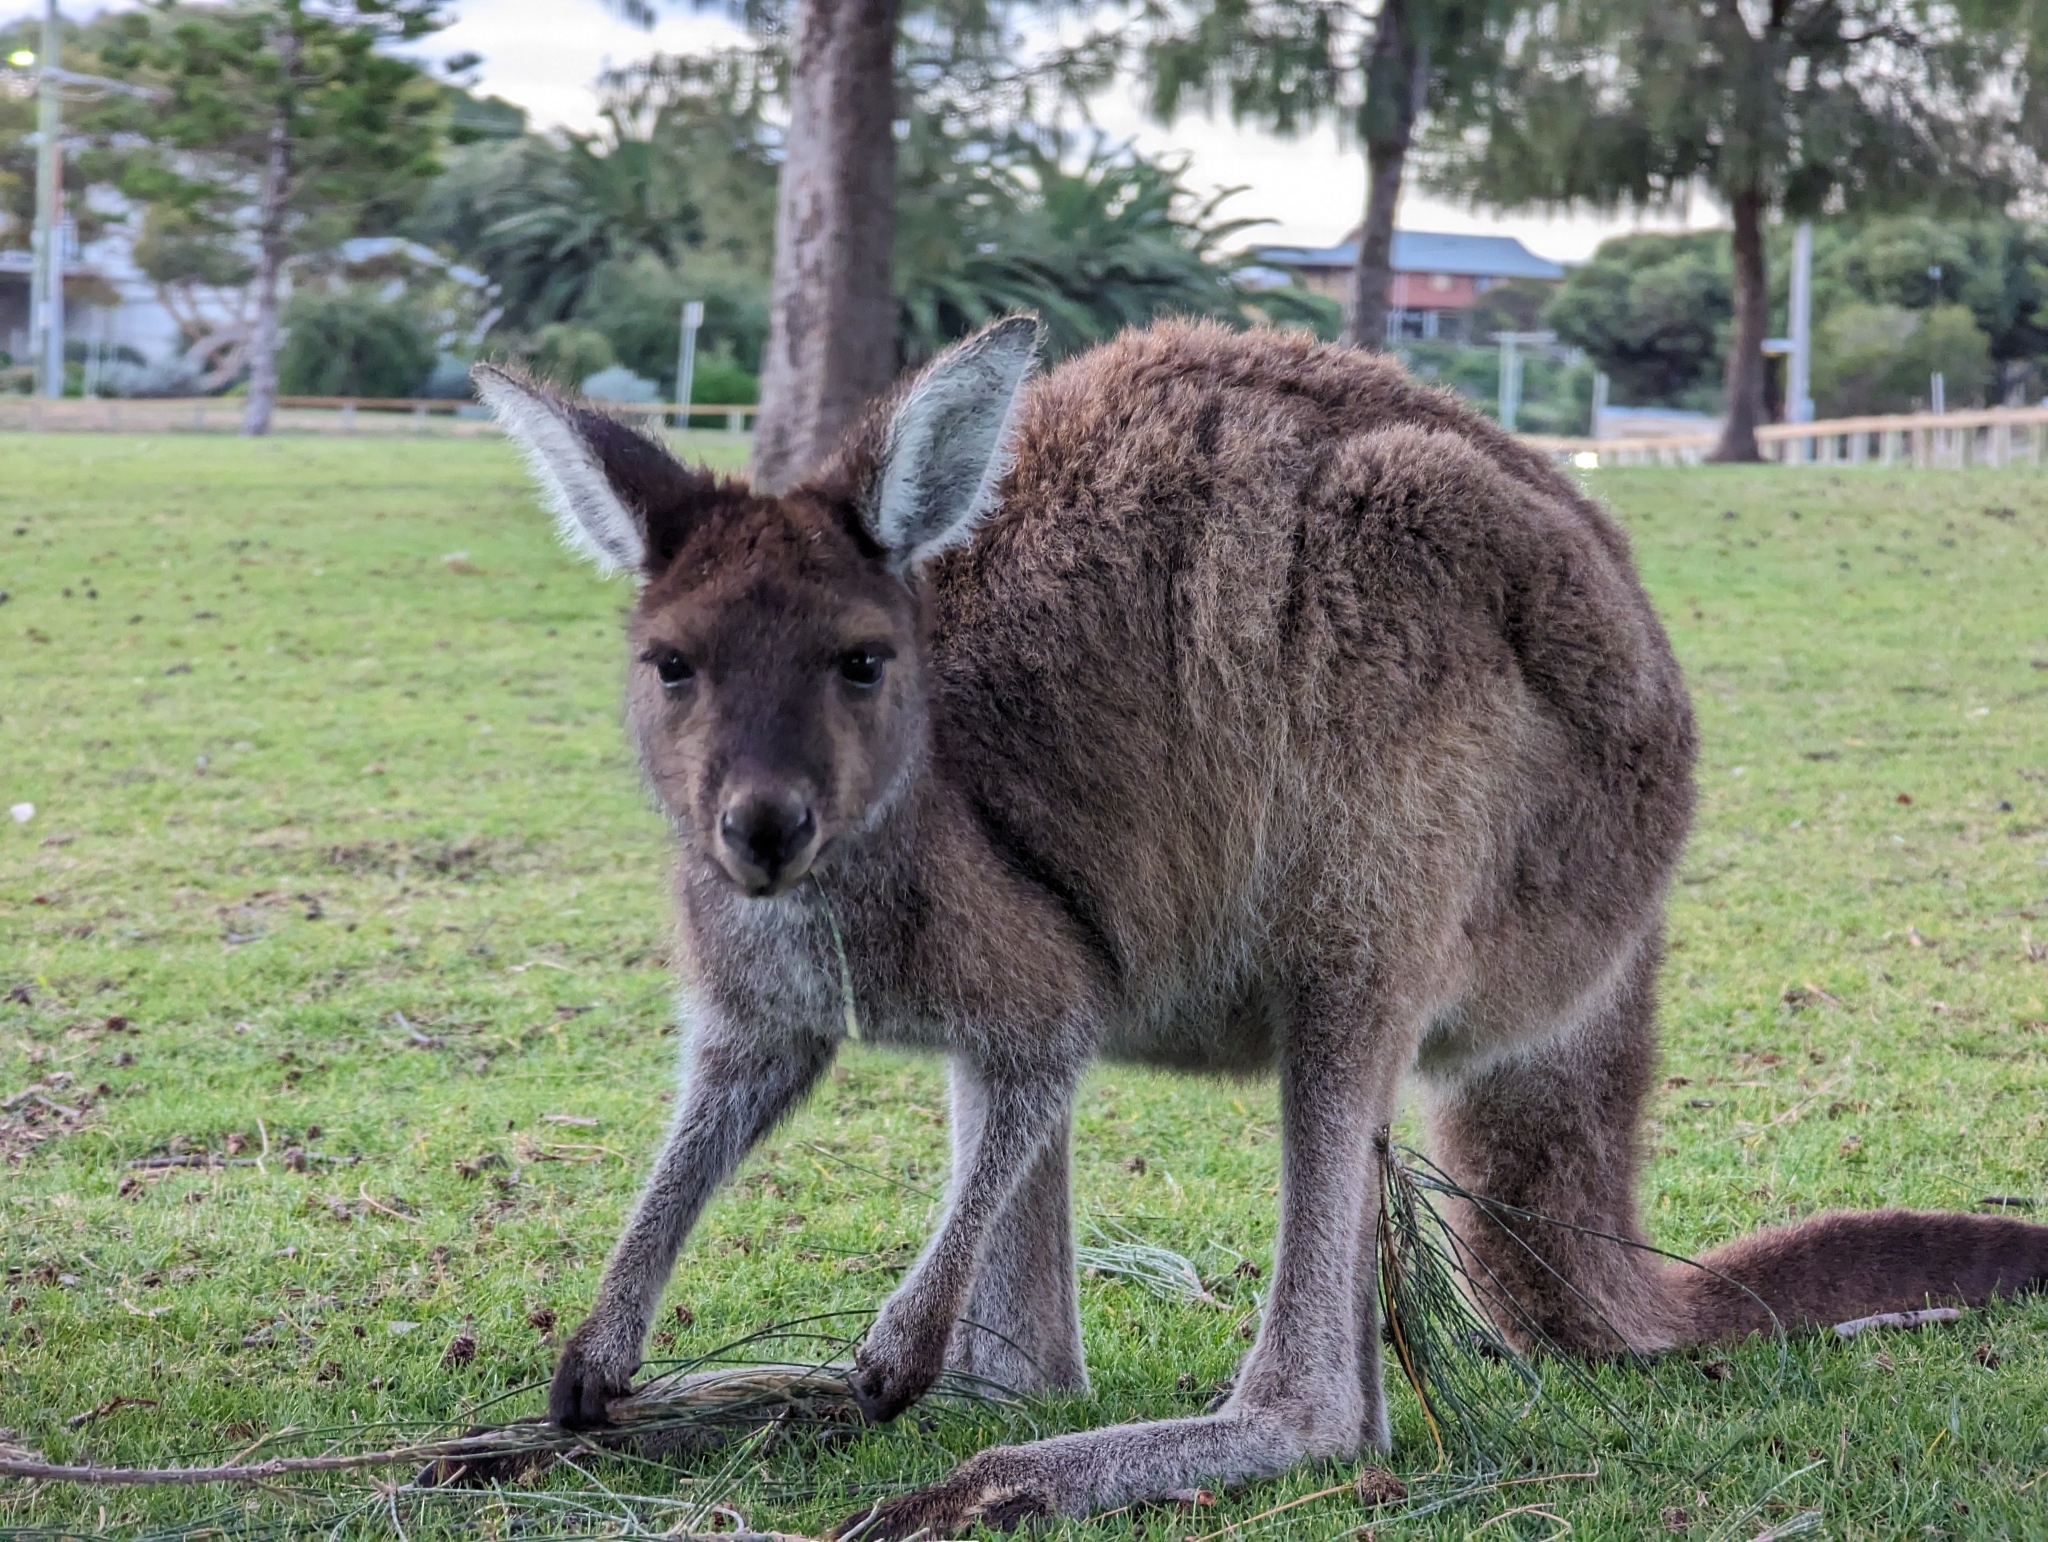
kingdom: Animalia
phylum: Chordata
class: Mammalia
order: Diprotodontia
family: Macropodidae
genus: Macropus
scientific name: Macropus fuliginosus
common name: Western grey kangaroo
